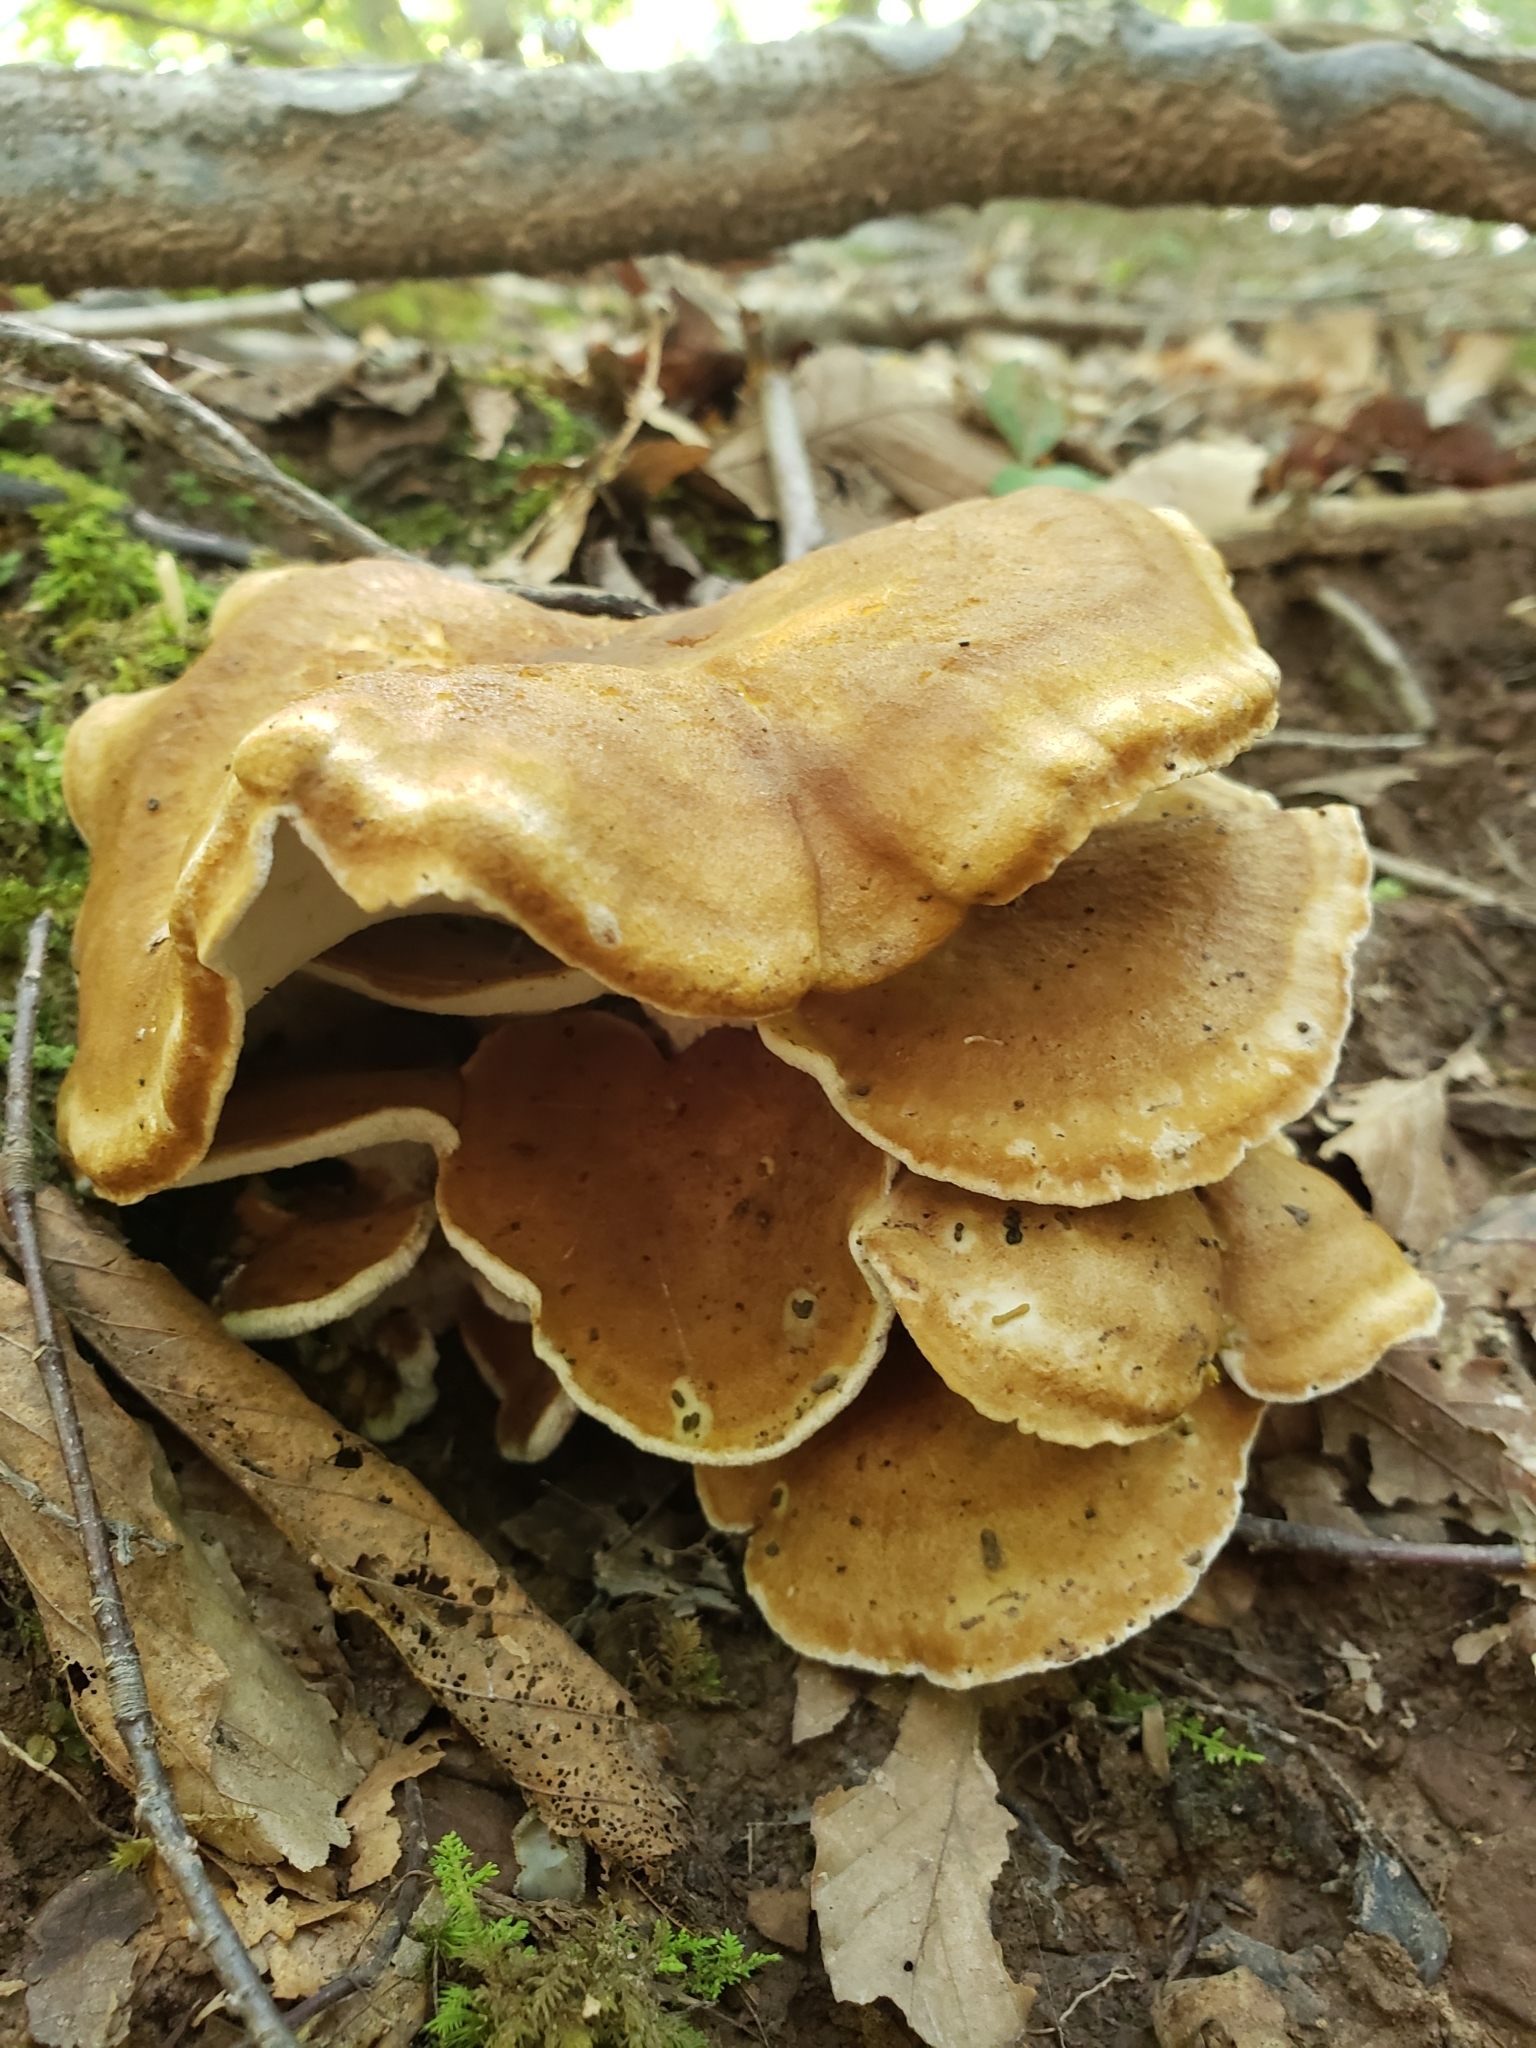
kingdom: Fungi
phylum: Basidiomycota
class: Agaricomycetes
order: Russulales
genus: Laeticutis
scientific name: Laeticutis cristata
